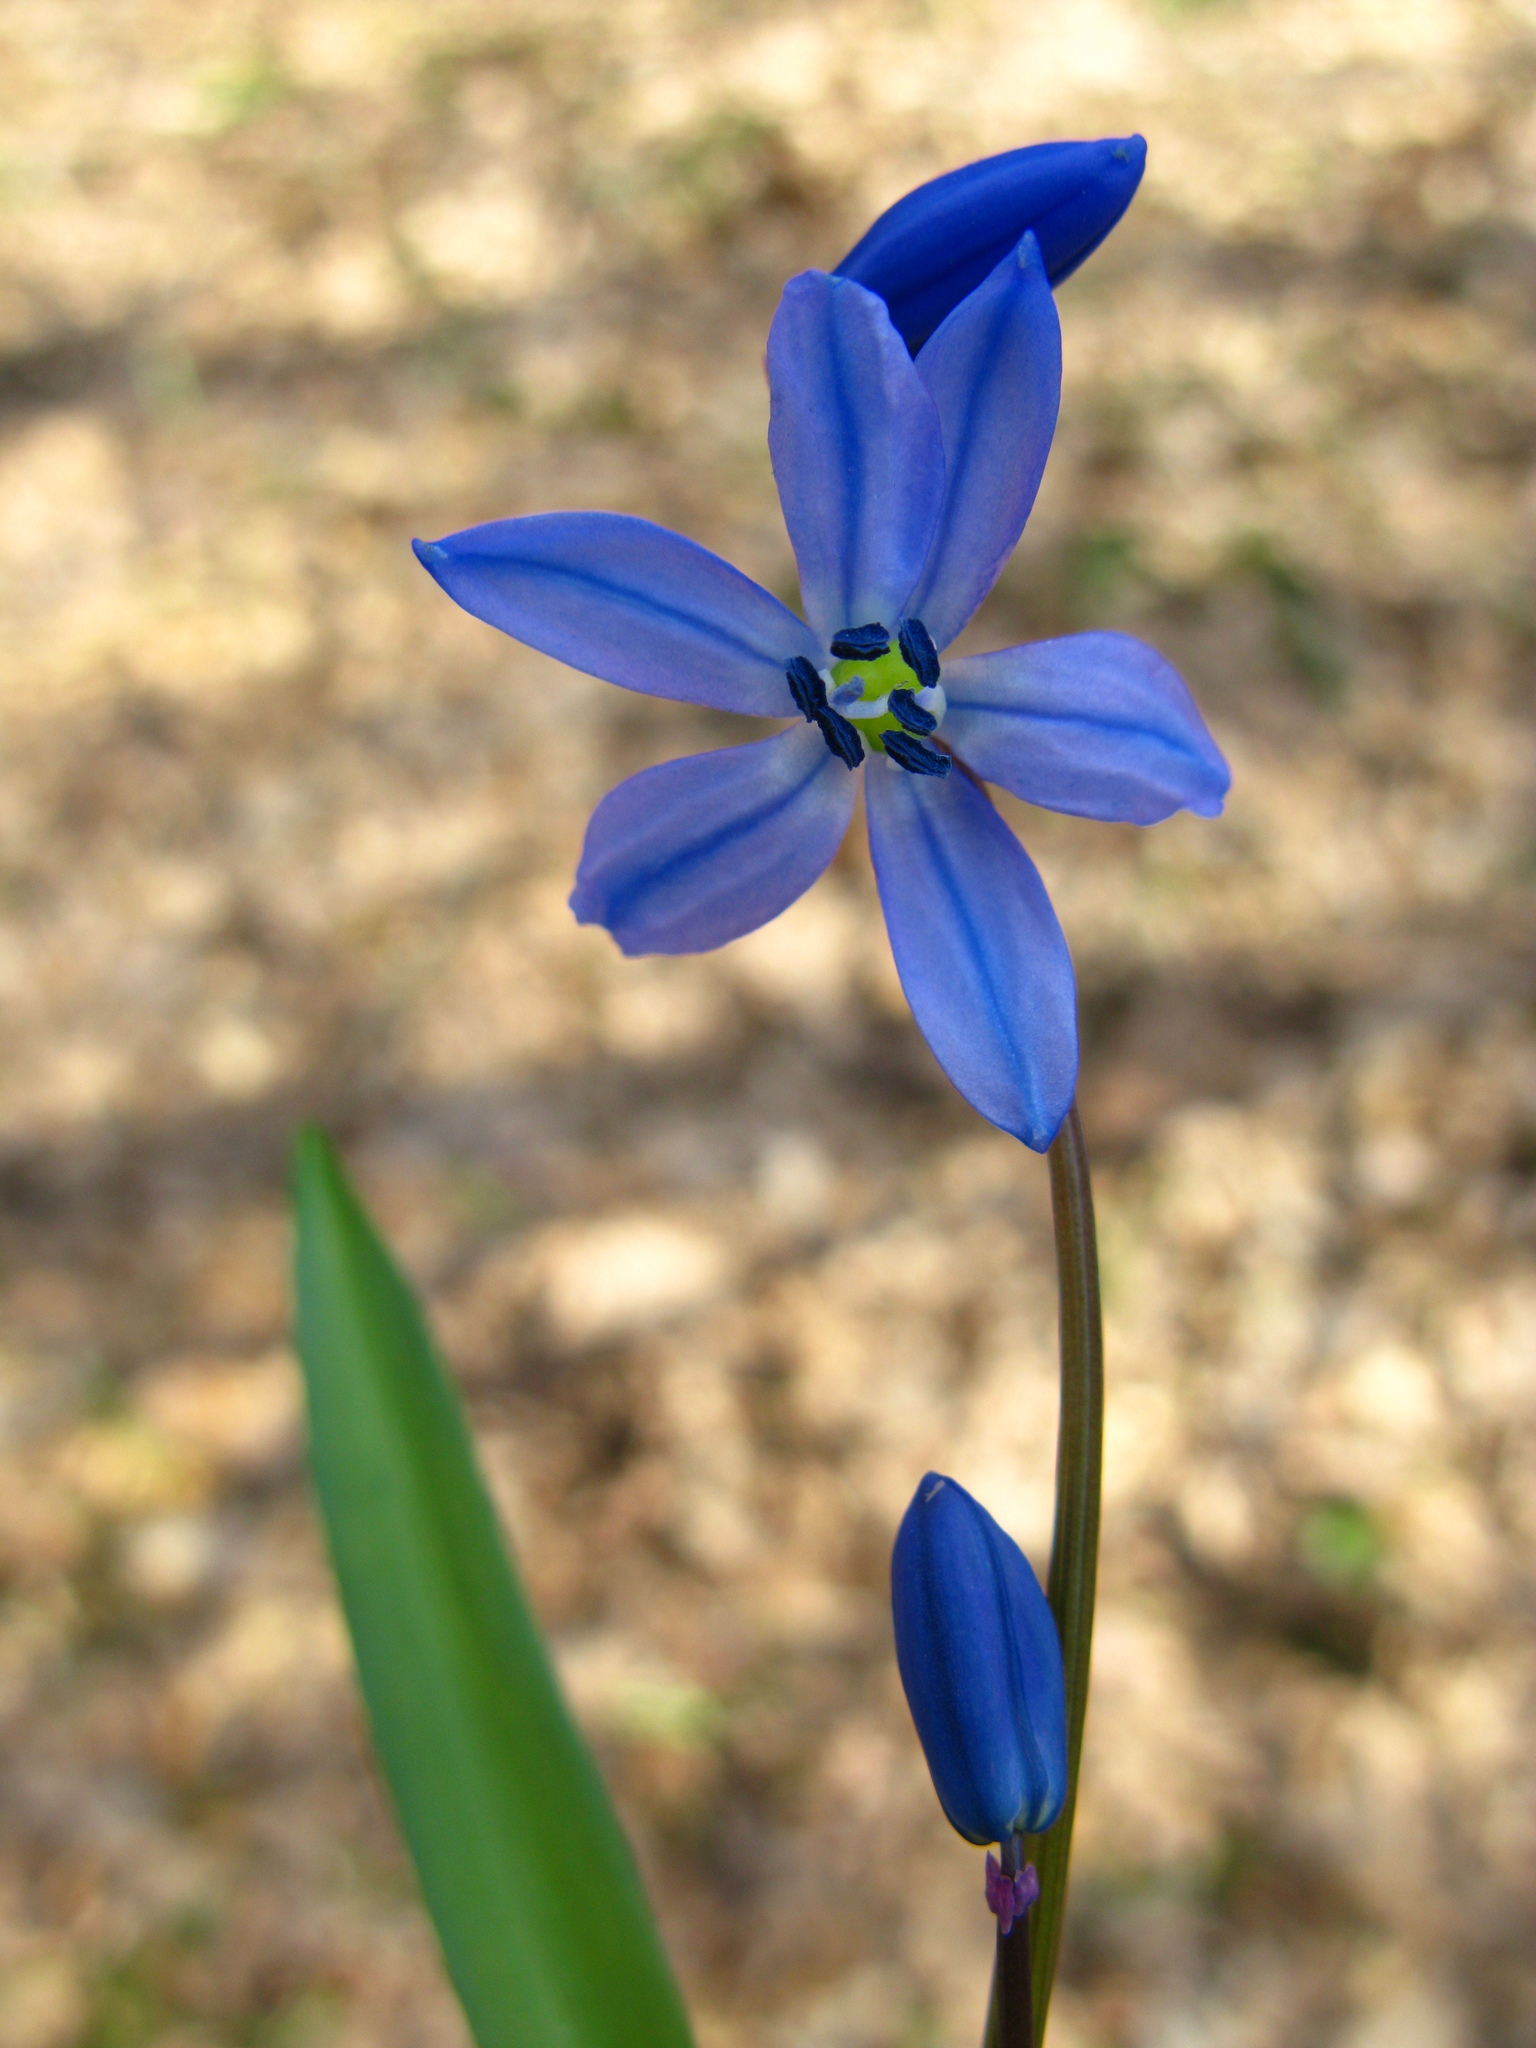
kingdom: Plantae
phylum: Tracheophyta
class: Liliopsida
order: Asparagales
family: Asparagaceae
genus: Scilla
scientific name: Scilla siberica
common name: Siberian squill
